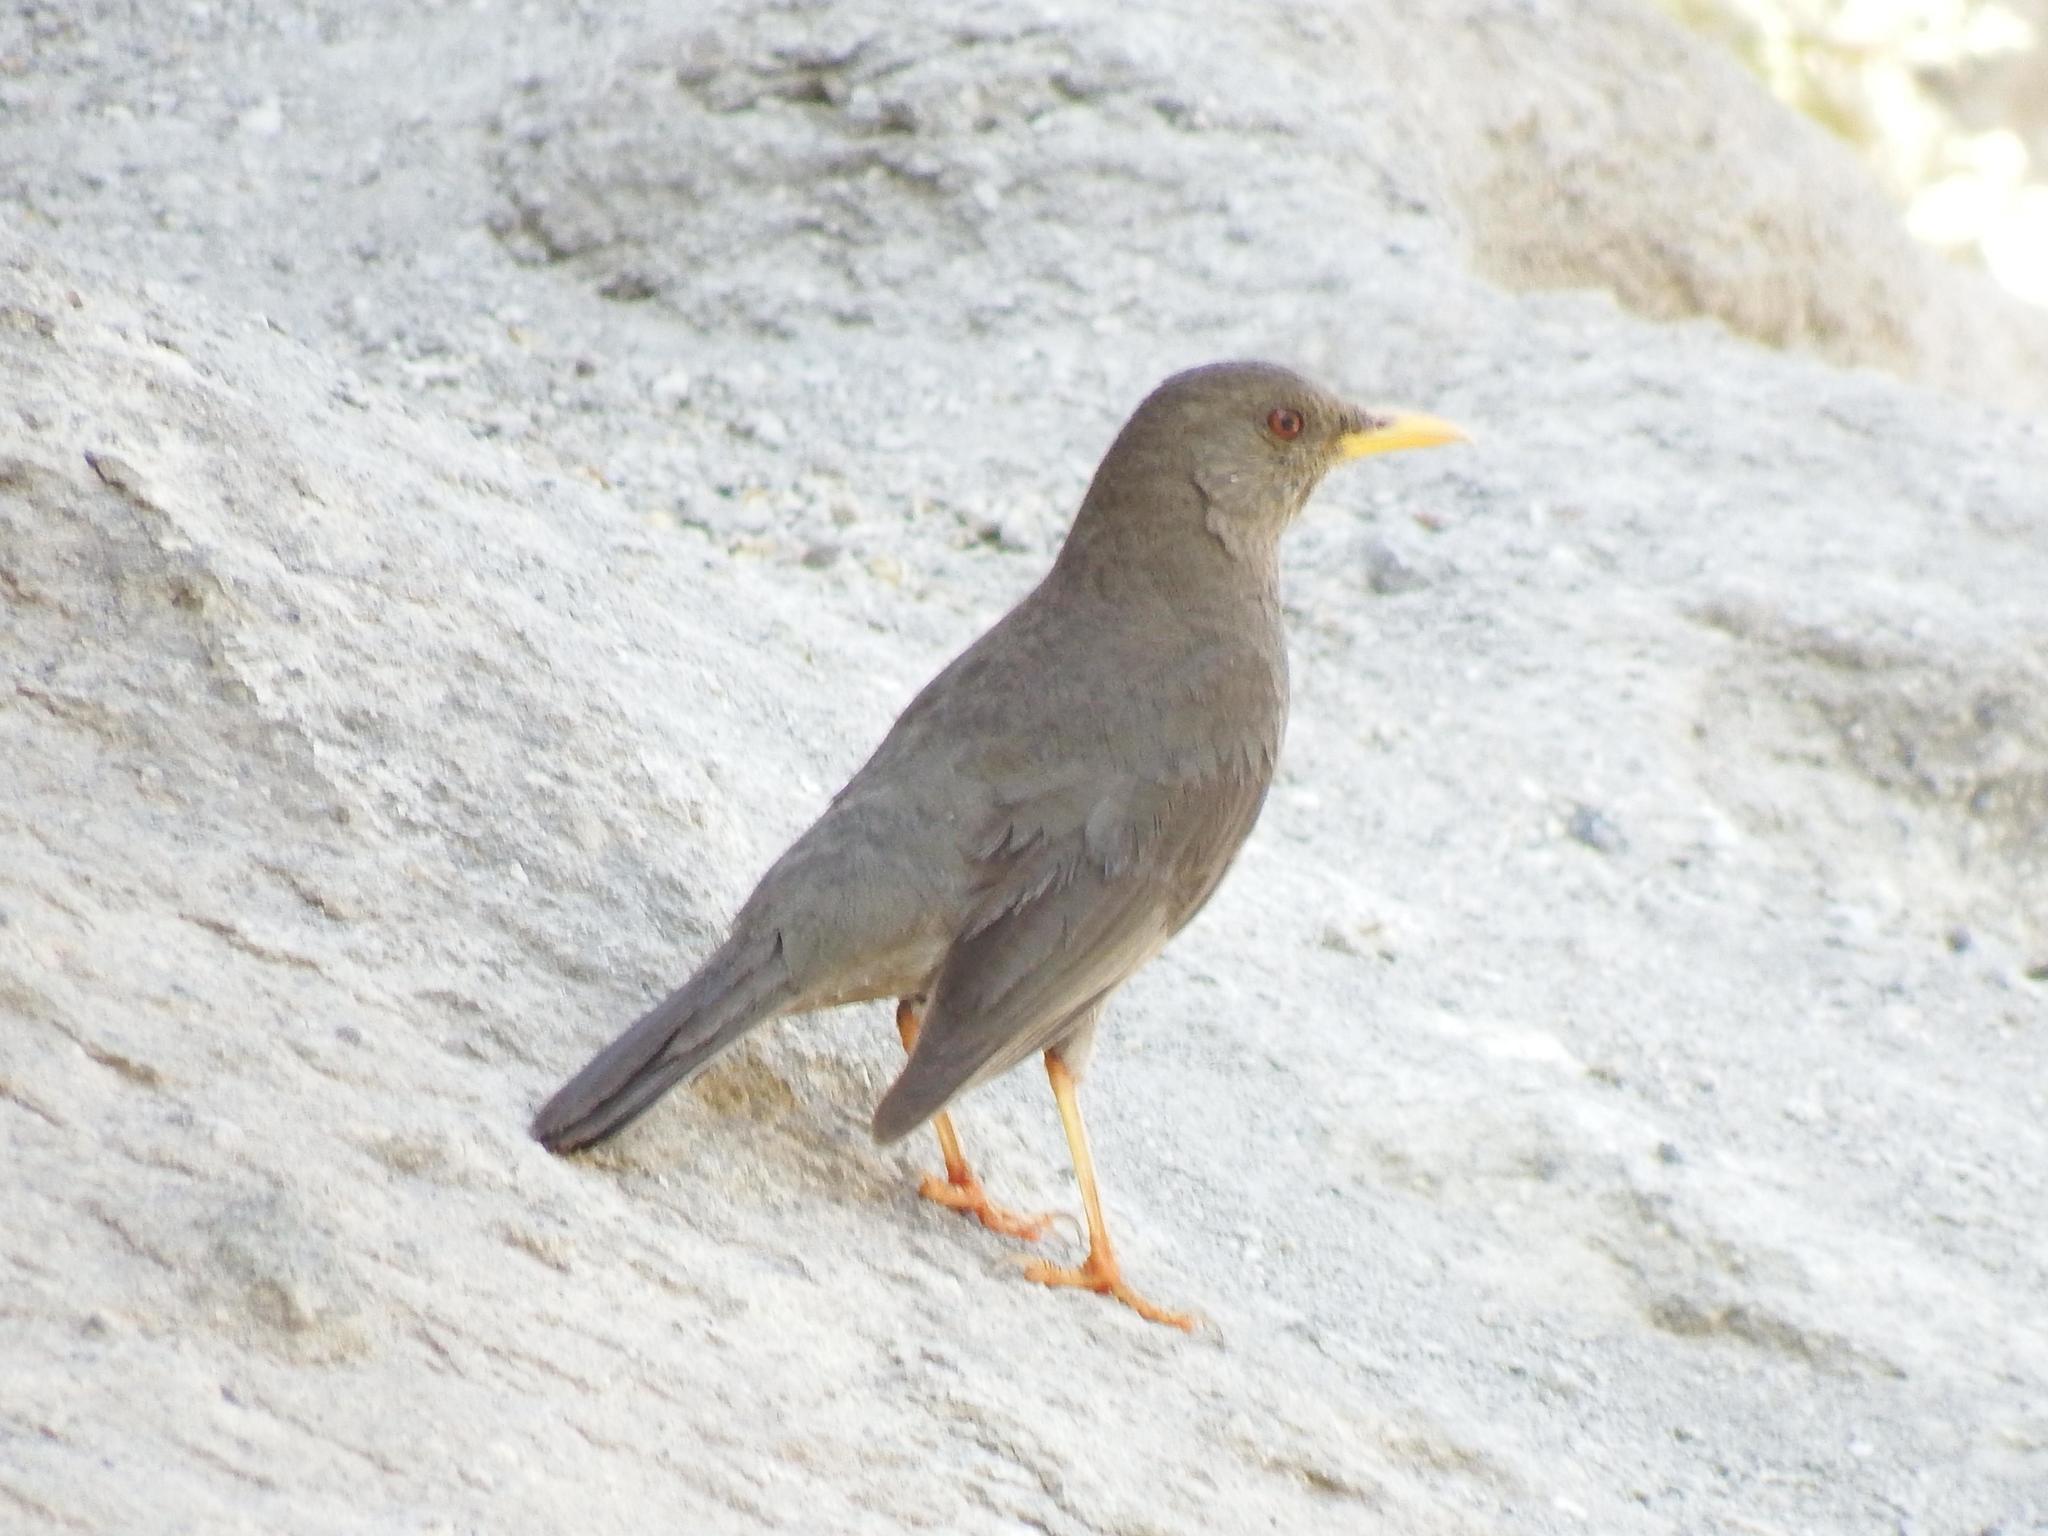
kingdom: Animalia
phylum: Chordata
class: Aves
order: Passeriformes
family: Turdidae
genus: Turdus
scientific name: Turdus chiguanco
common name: Chiguanco thrush
